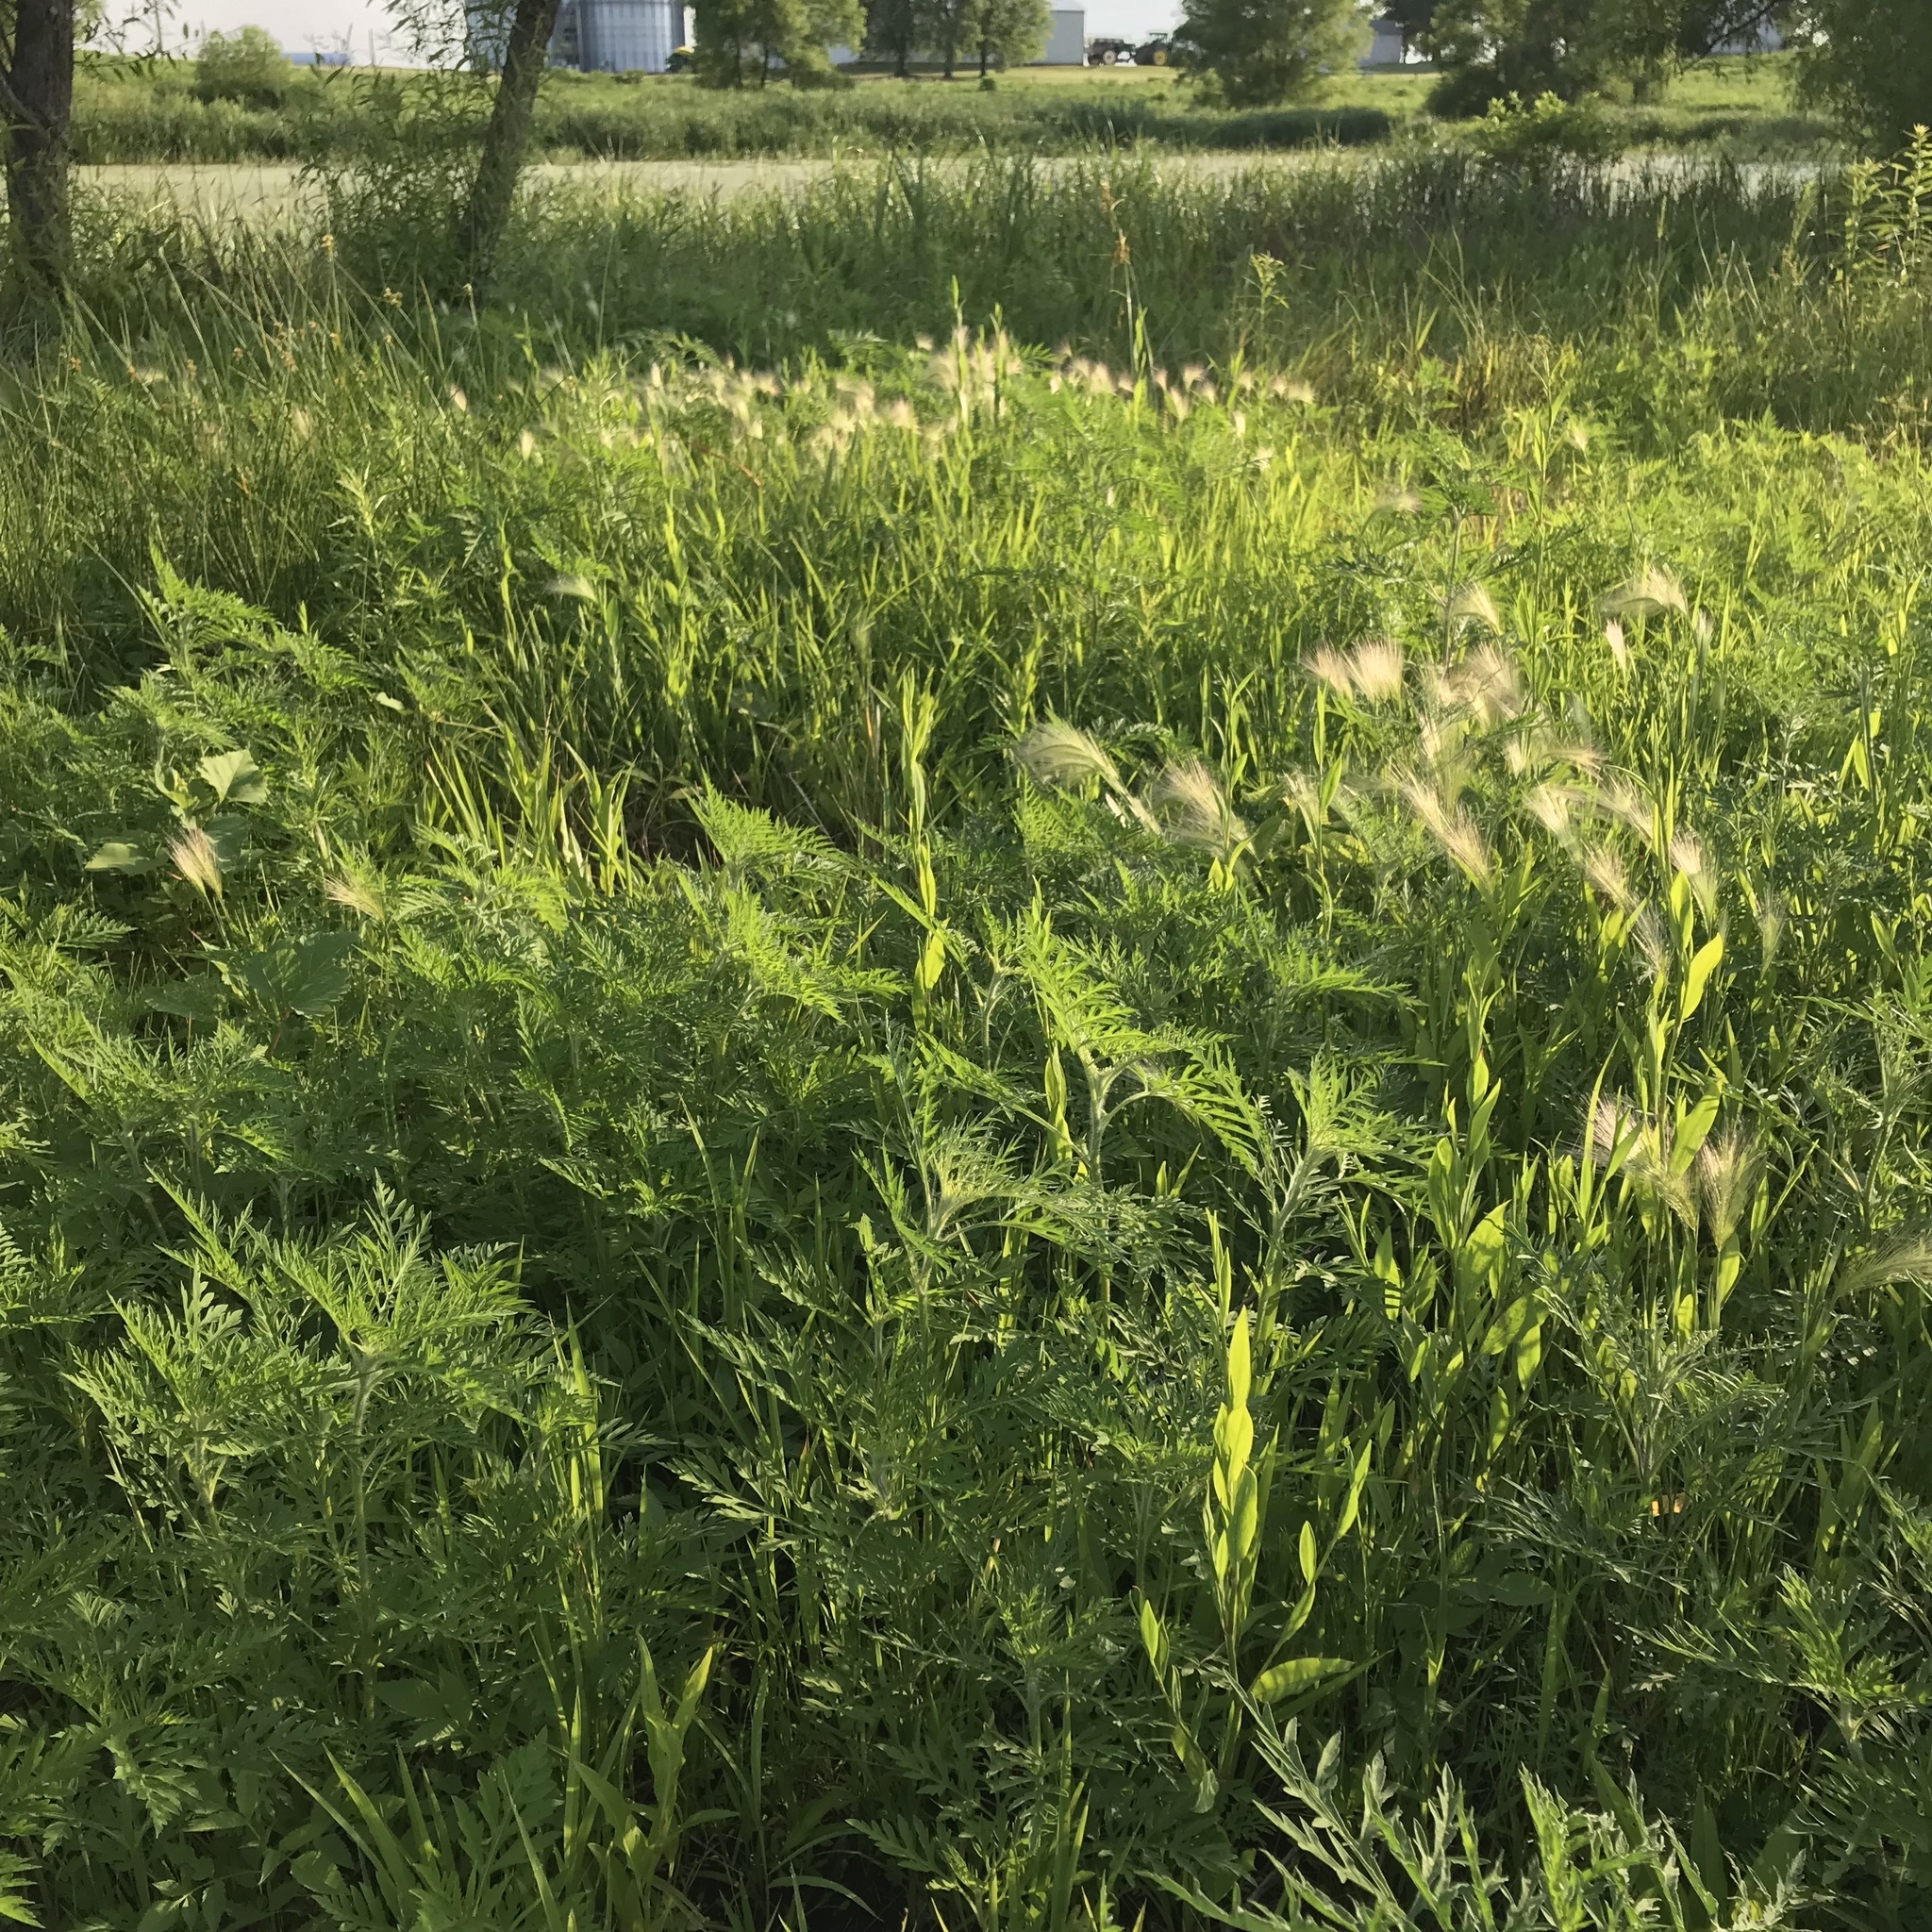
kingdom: Plantae
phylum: Tracheophyta
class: Liliopsida
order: Poales
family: Poaceae
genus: Hordeum
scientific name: Hordeum jubatum
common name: Foxtail barley
